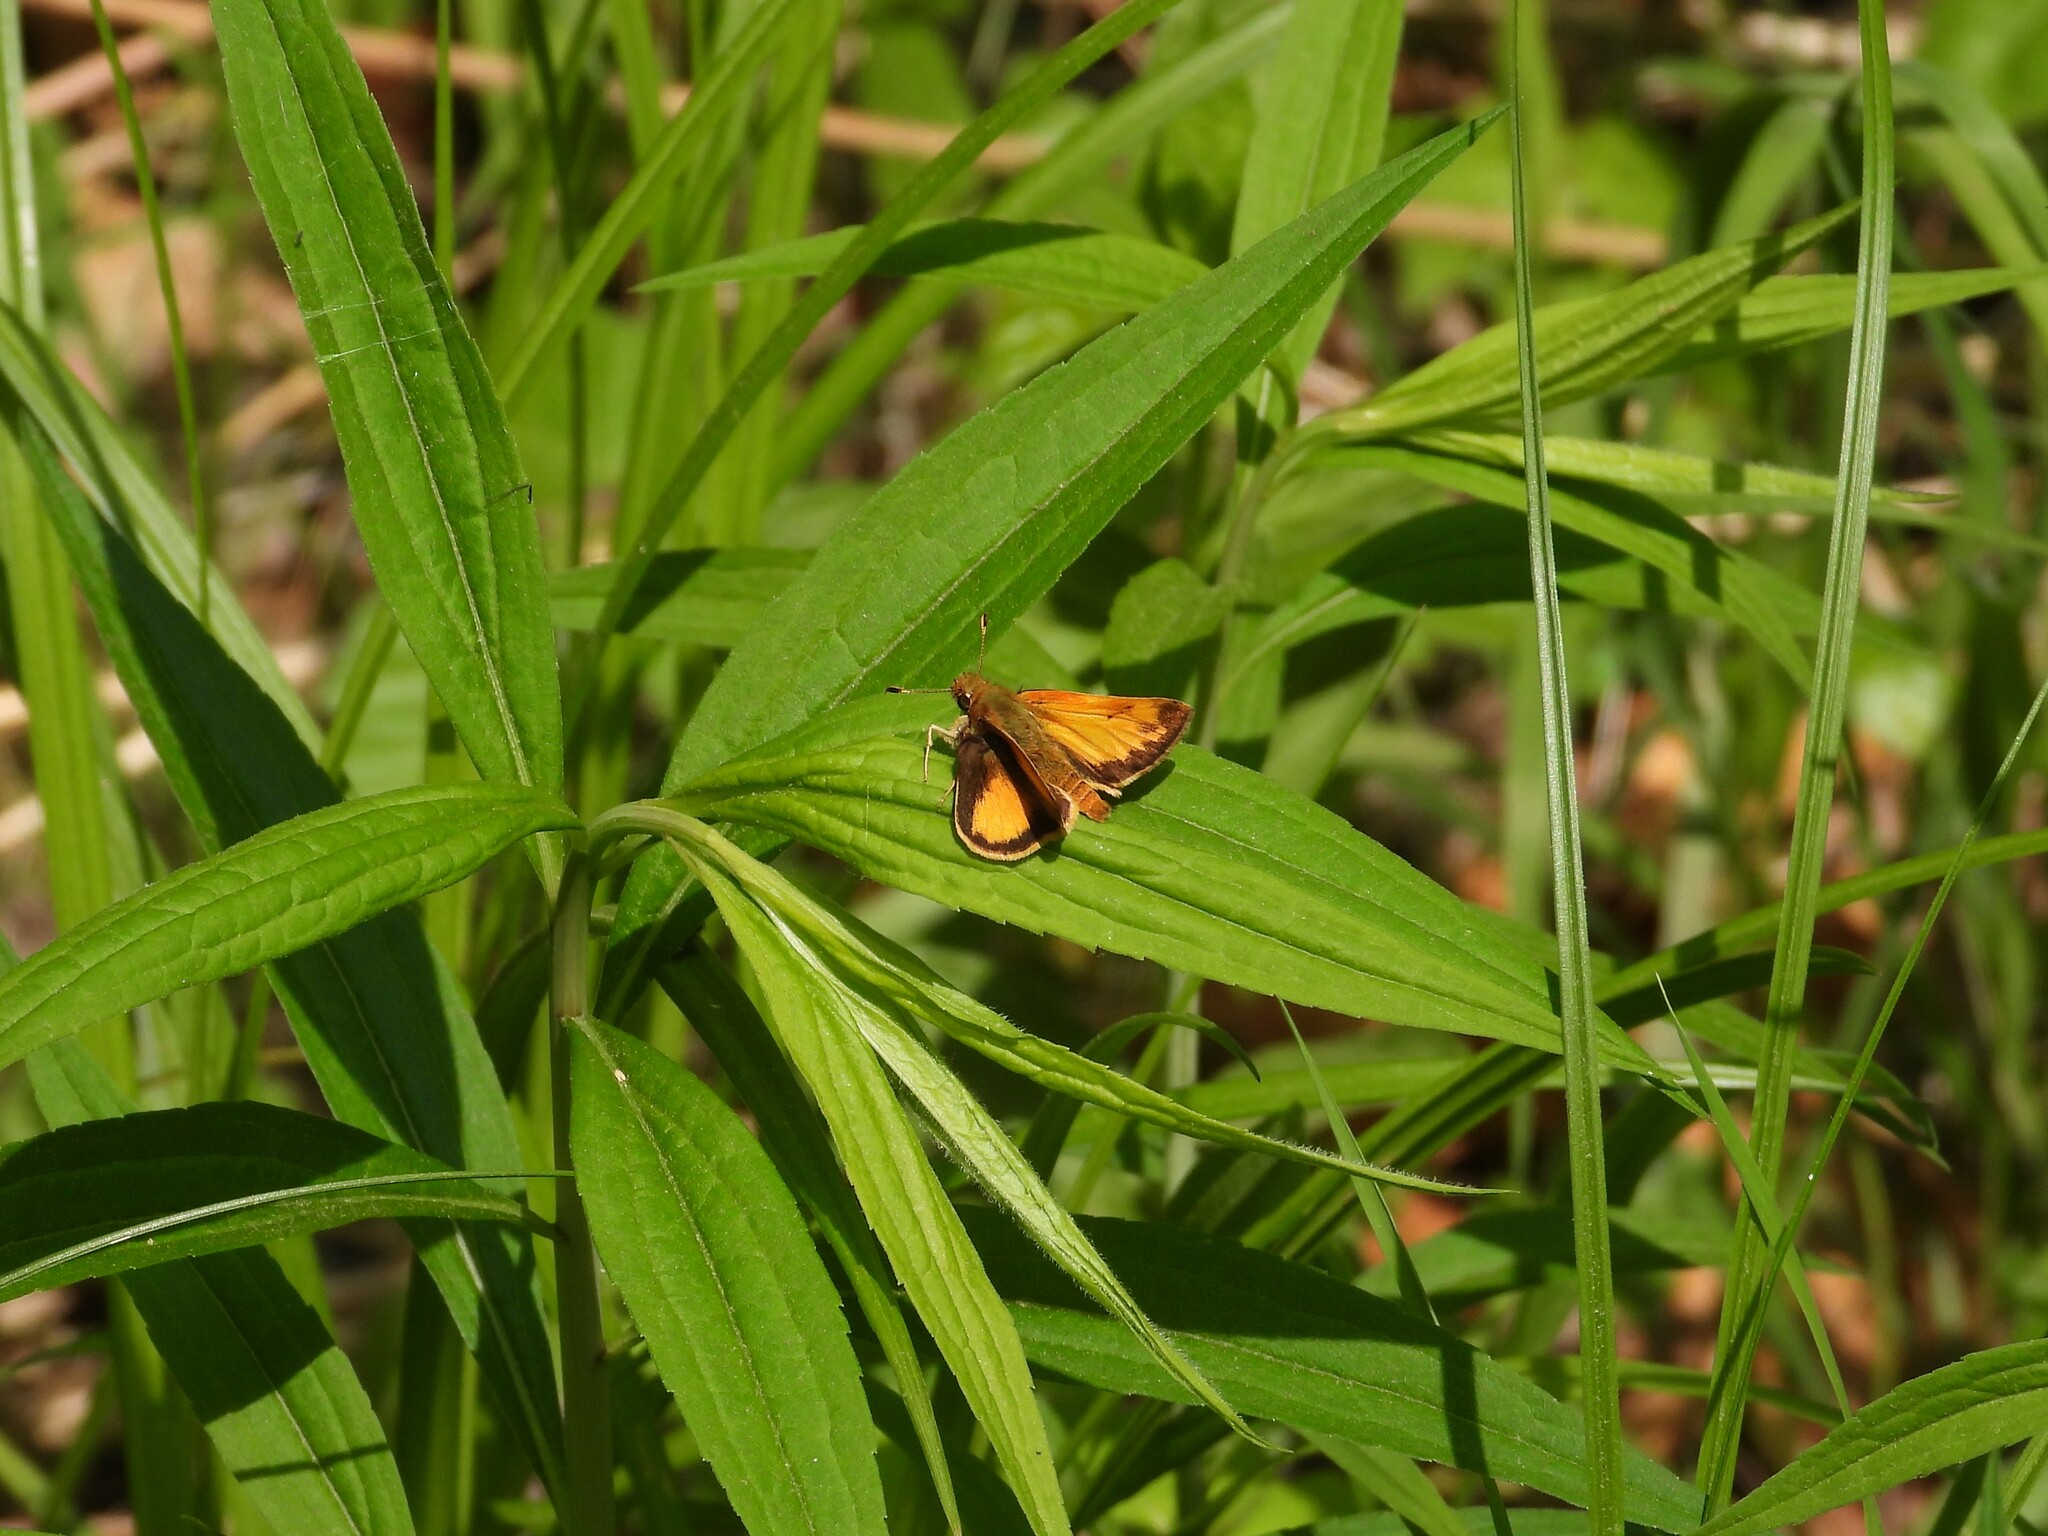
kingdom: Animalia
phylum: Arthropoda
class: Insecta
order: Lepidoptera
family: Hesperiidae
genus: Lon
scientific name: Lon zabulon
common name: Zabulon skipper
